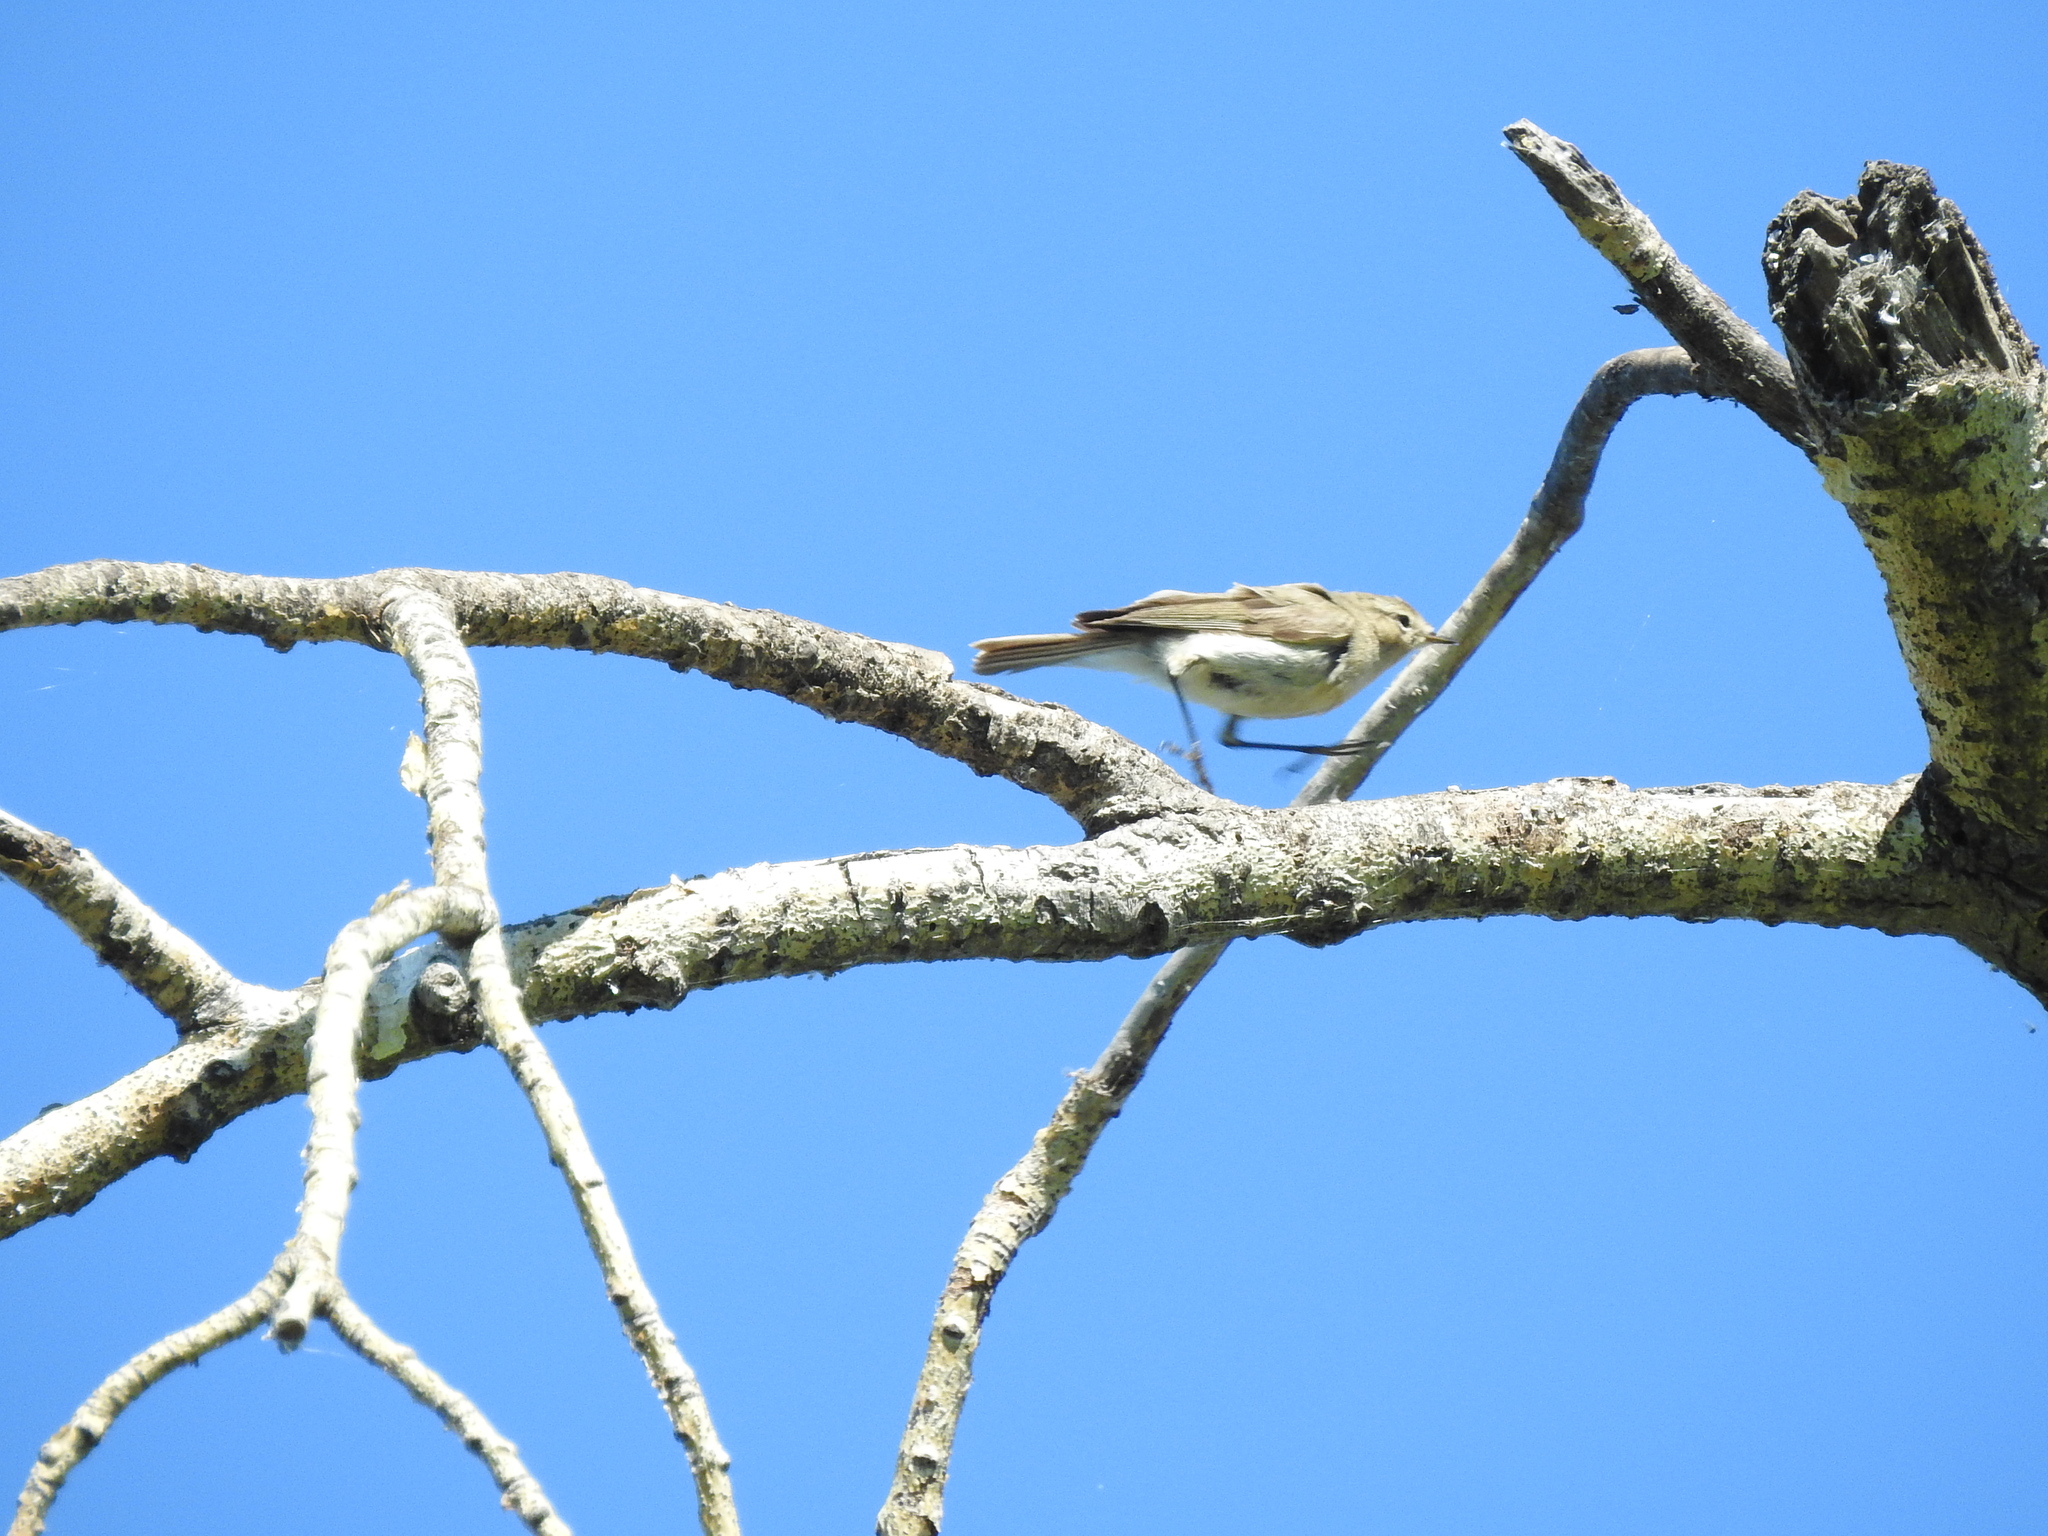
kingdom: Animalia
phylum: Chordata
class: Aves
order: Passeriformes
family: Phylloscopidae
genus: Phylloscopus
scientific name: Phylloscopus collybita
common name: Common chiffchaff
